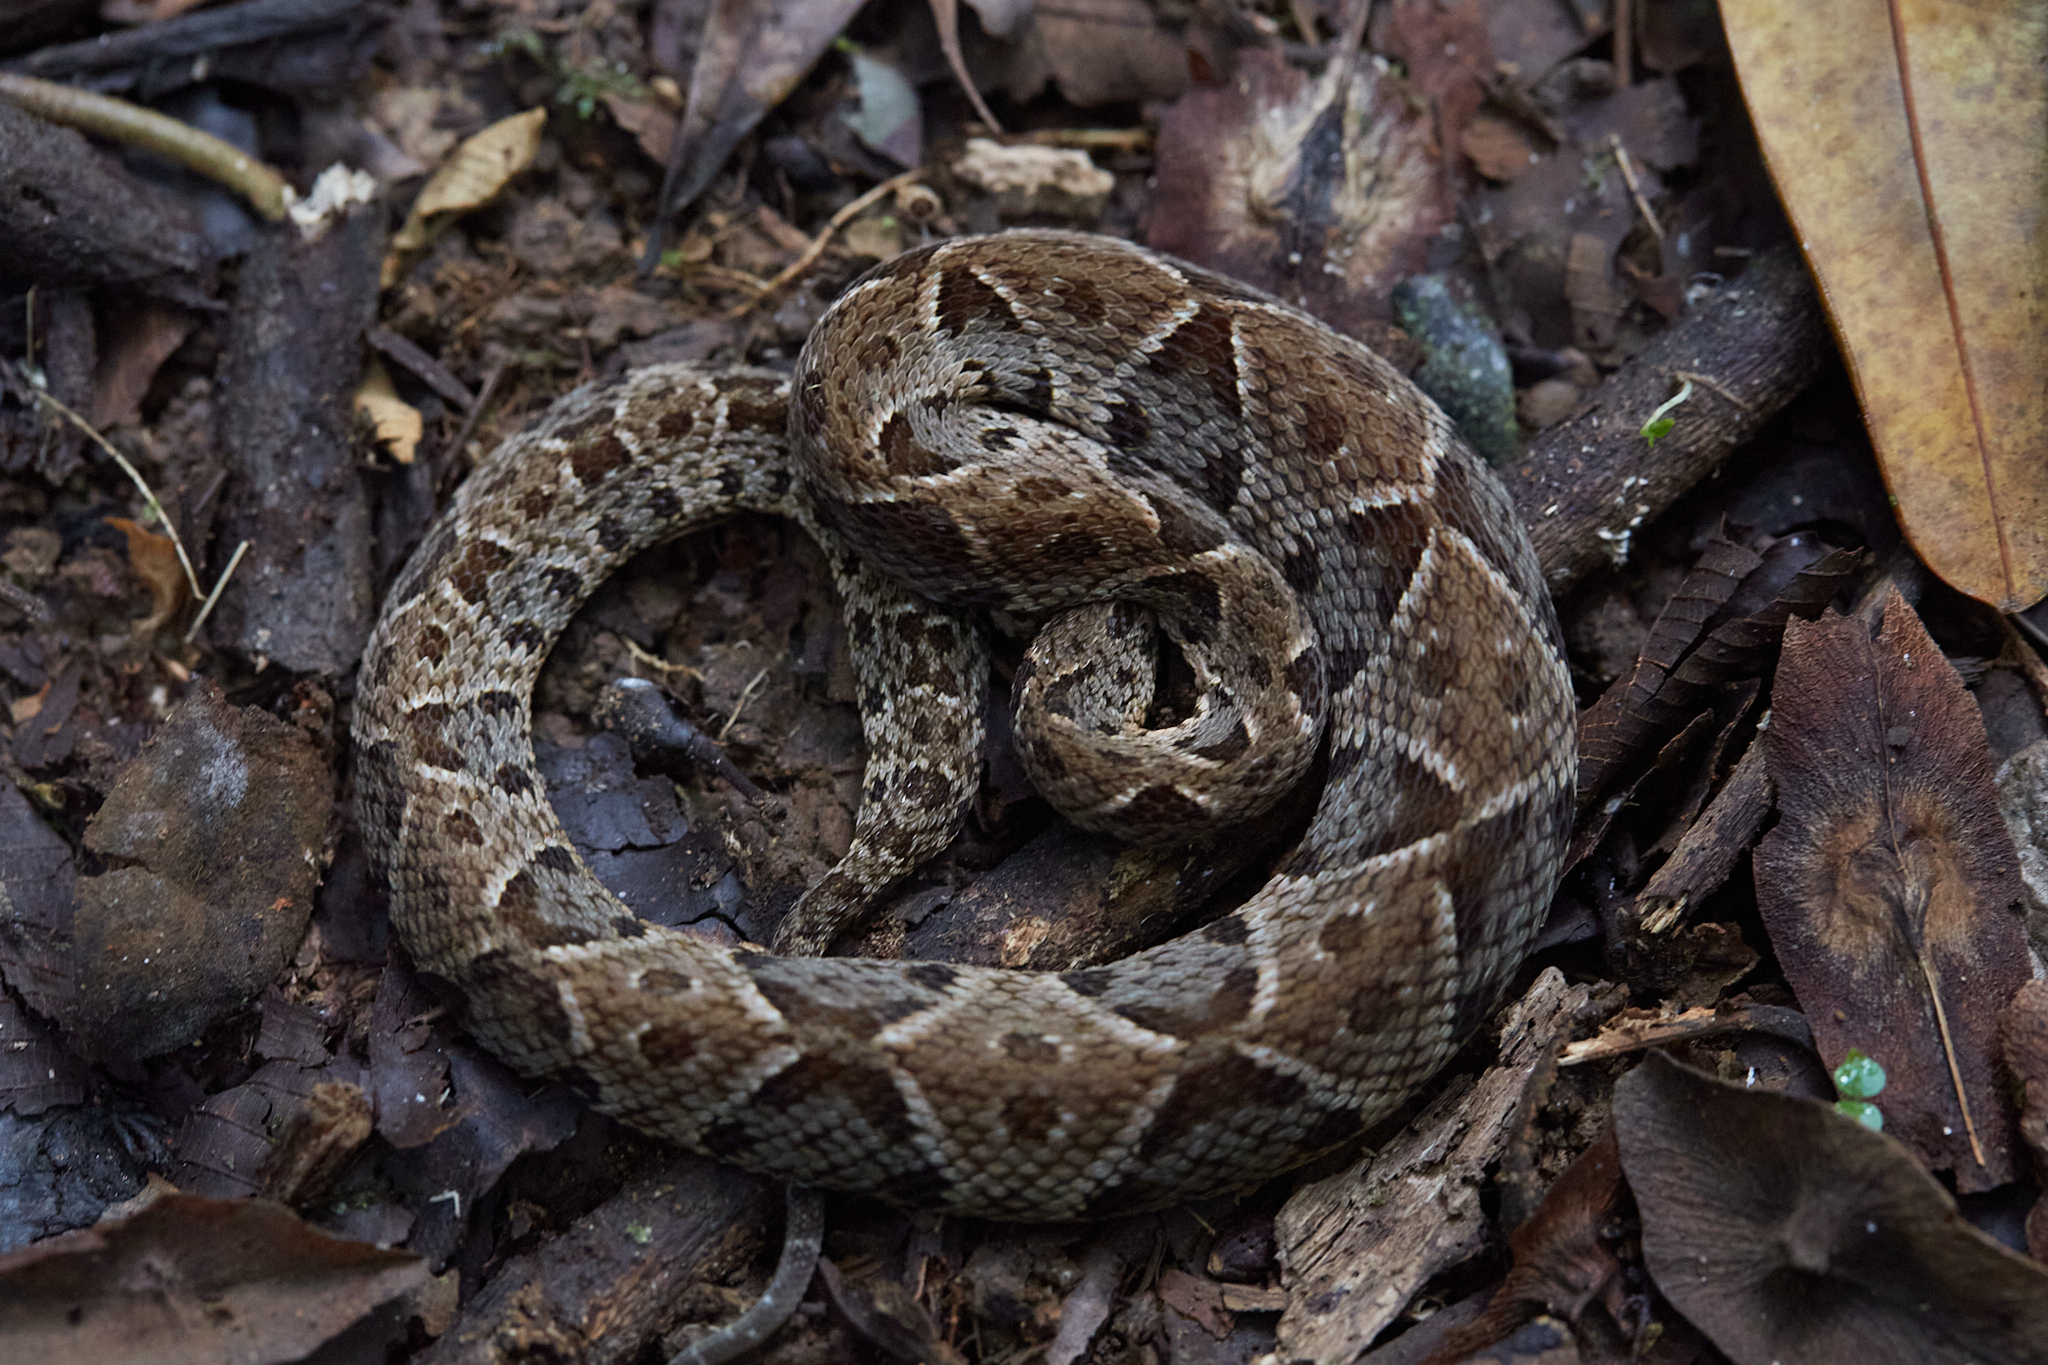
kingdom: Animalia
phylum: Chordata
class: Squamata
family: Viperidae
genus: Bothrops
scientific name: Bothrops asper
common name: Terciopelo
